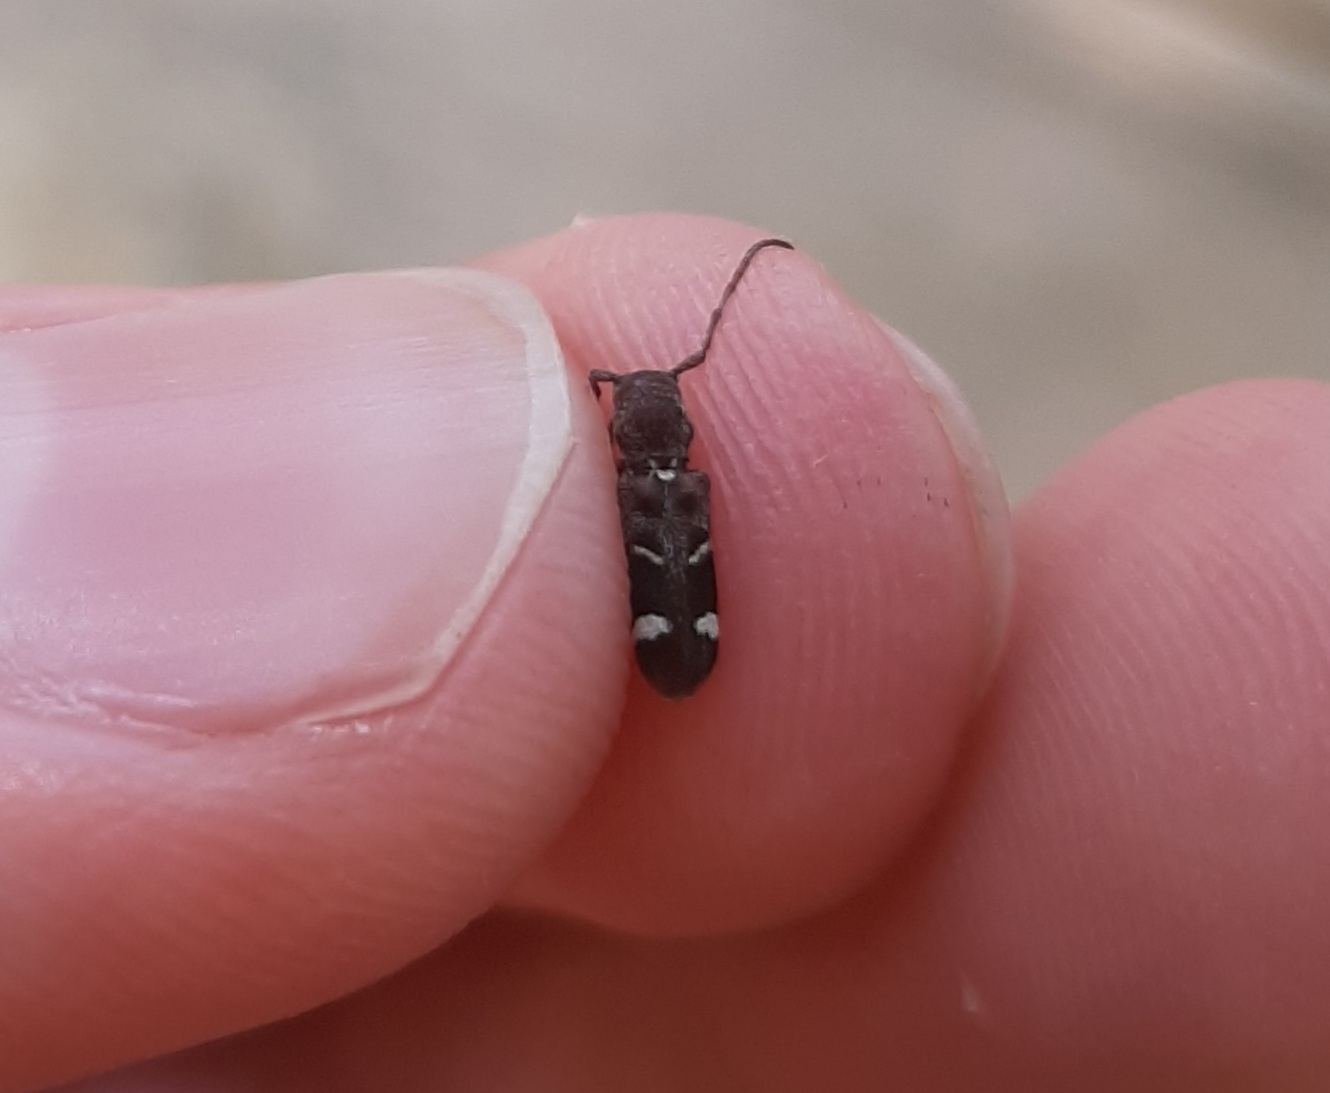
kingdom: Animalia
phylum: Arthropoda
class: Insecta
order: Coleoptera
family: Cerambycidae
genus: Psenocerus
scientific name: Psenocerus supernotatus
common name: Currant-tip borer
